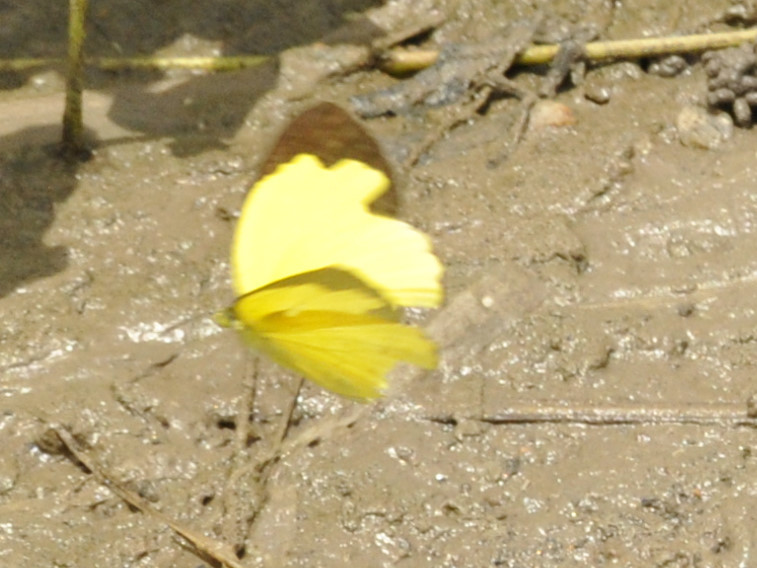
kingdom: Animalia
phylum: Arthropoda
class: Insecta
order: Lepidoptera
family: Pieridae
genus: Eurema
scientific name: Eurema hecabe
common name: Pale grass yellow
